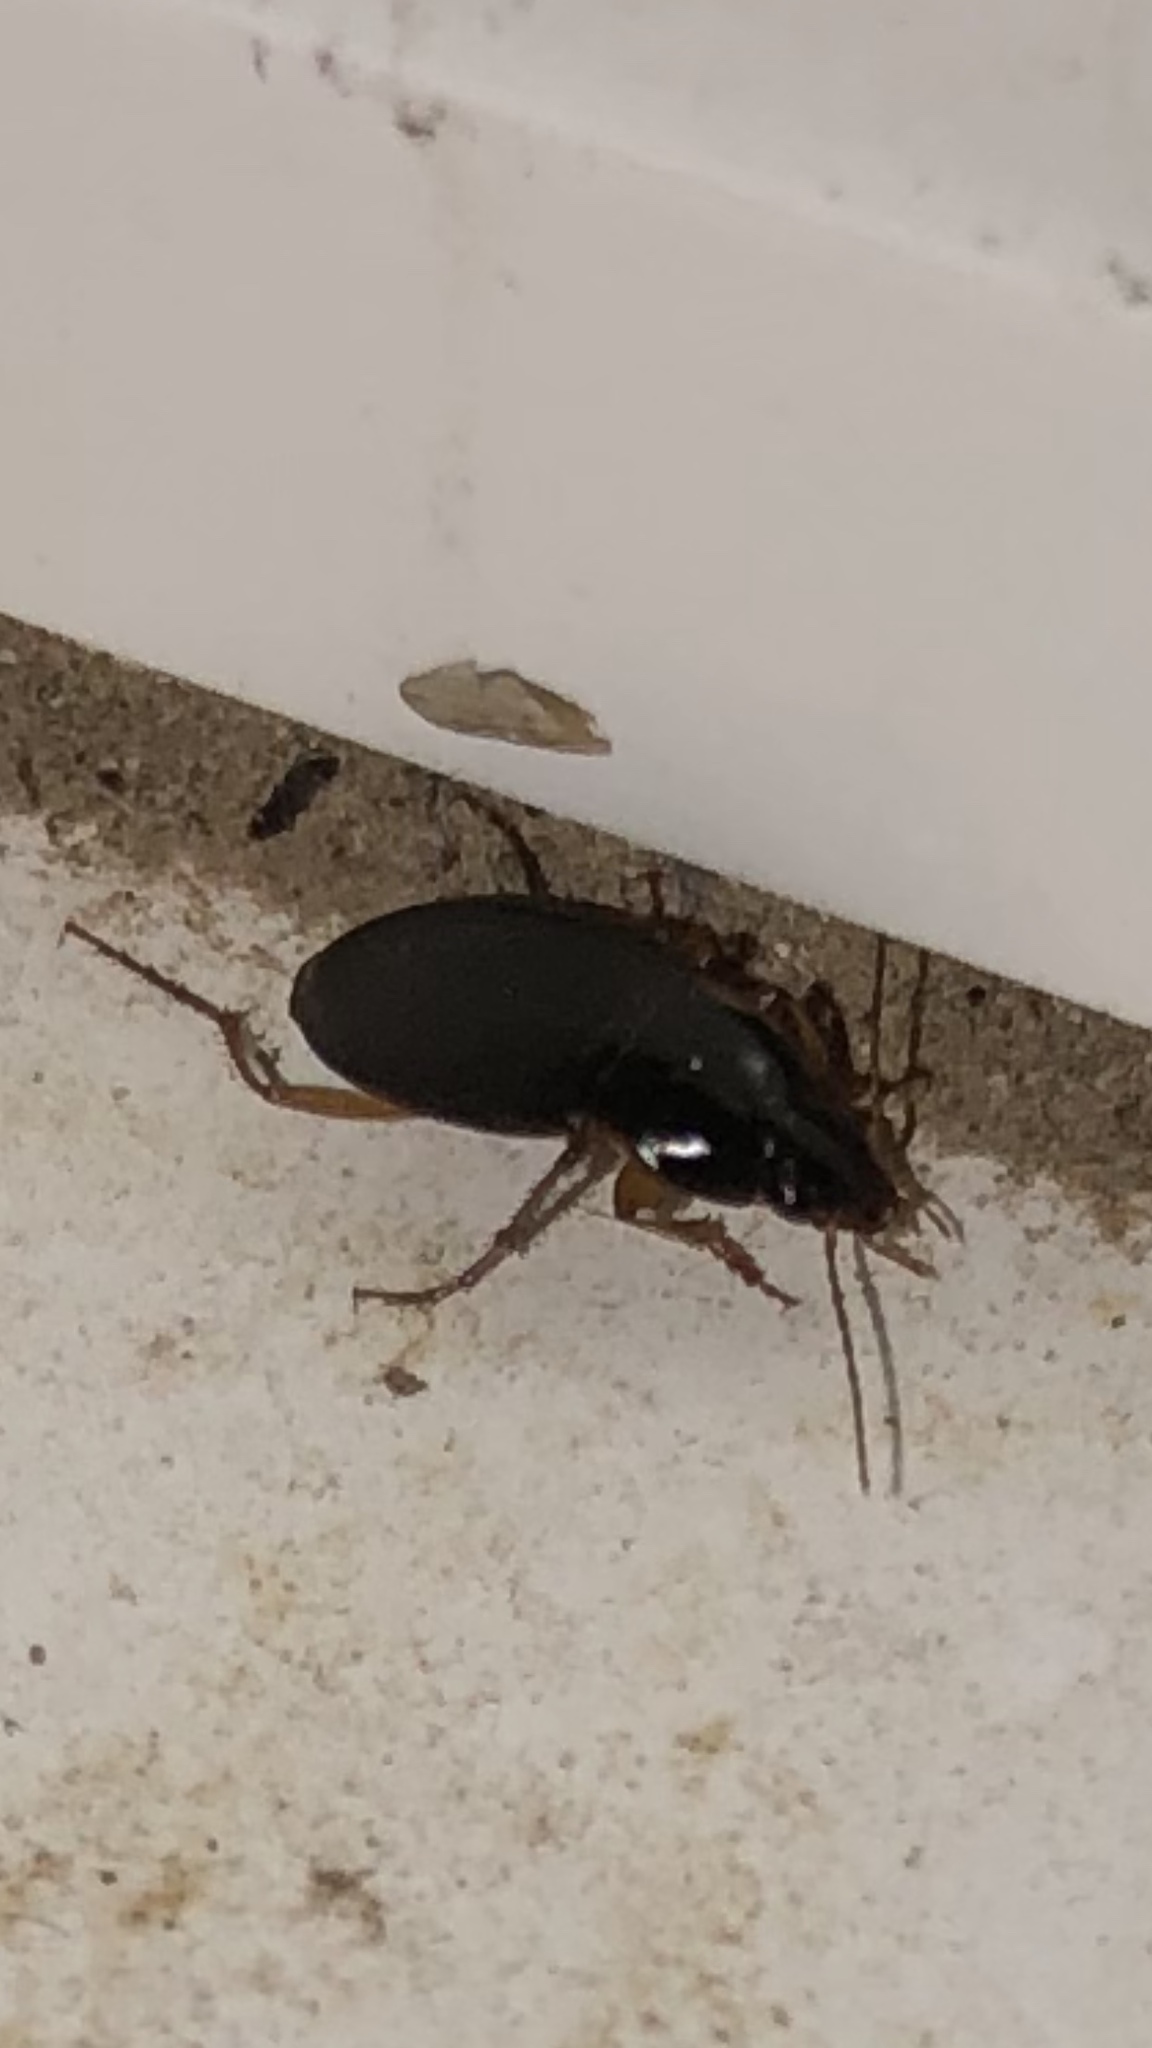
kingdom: Animalia
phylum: Arthropoda
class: Insecta
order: Coleoptera
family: Carabidae
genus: Calathus
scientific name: Calathus opaculus
